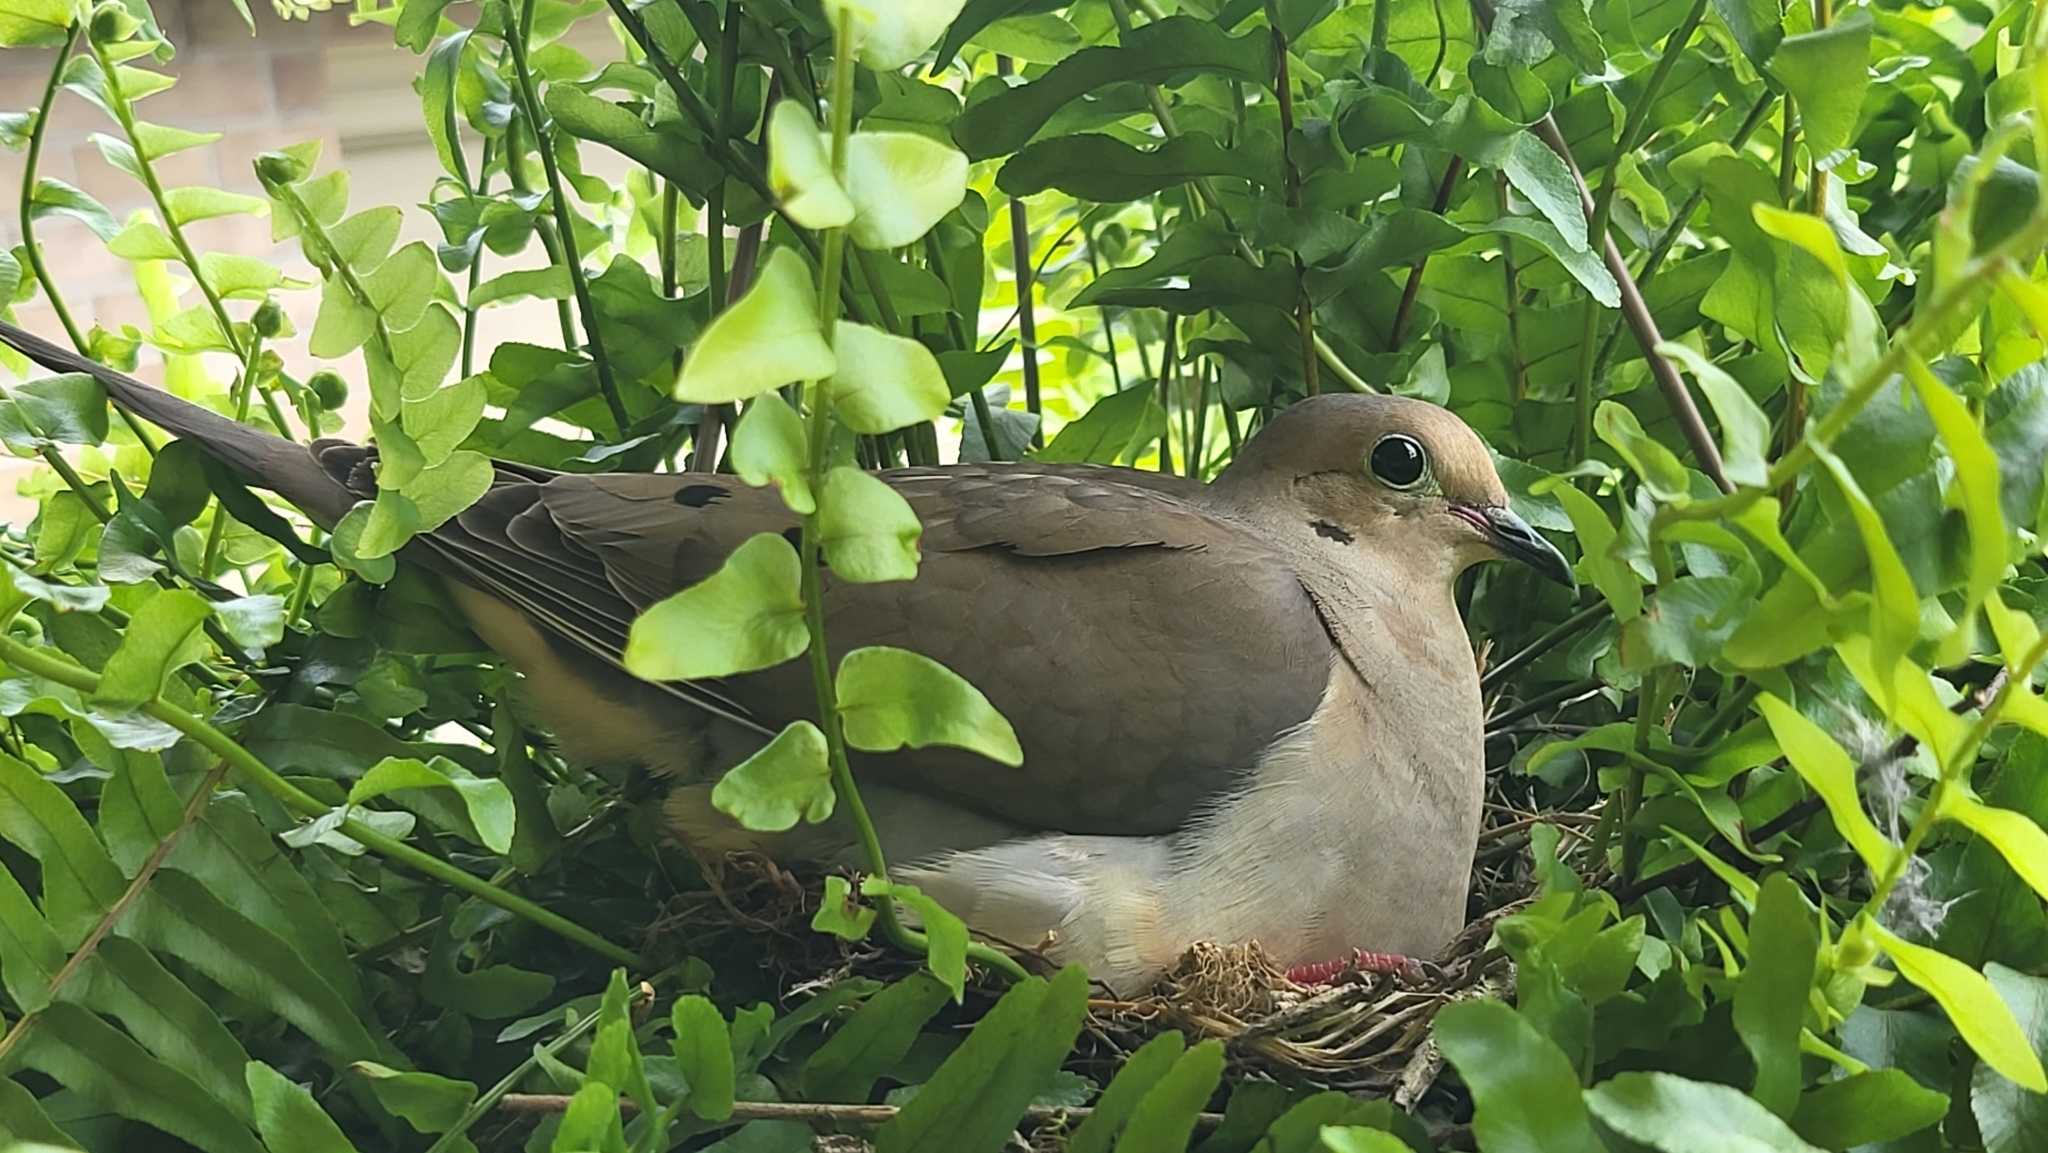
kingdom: Animalia
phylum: Chordata
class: Aves
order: Columbiformes
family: Columbidae
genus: Zenaida
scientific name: Zenaida macroura
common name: Mourning dove
